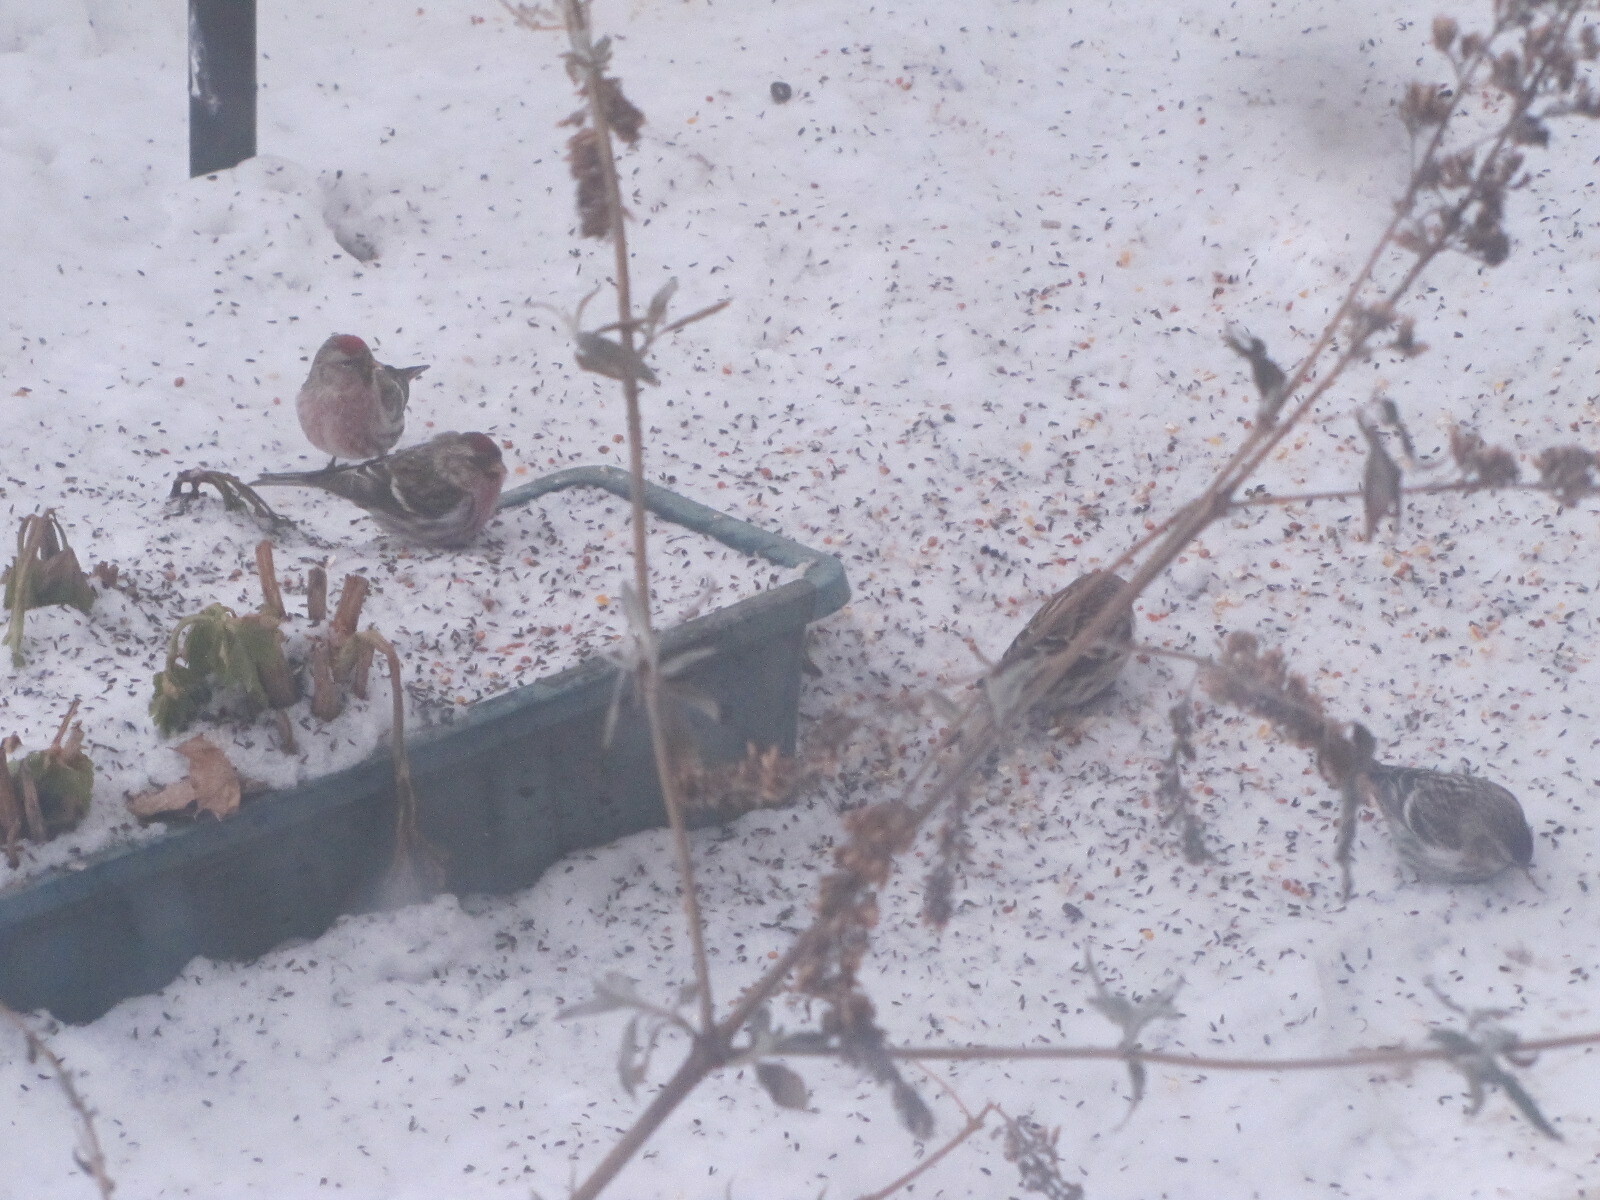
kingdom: Animalia
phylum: Chordata
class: Aves
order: Passeriformes
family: Fringillidae
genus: Acanthis
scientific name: Acanthis flammea
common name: Common redpoll
